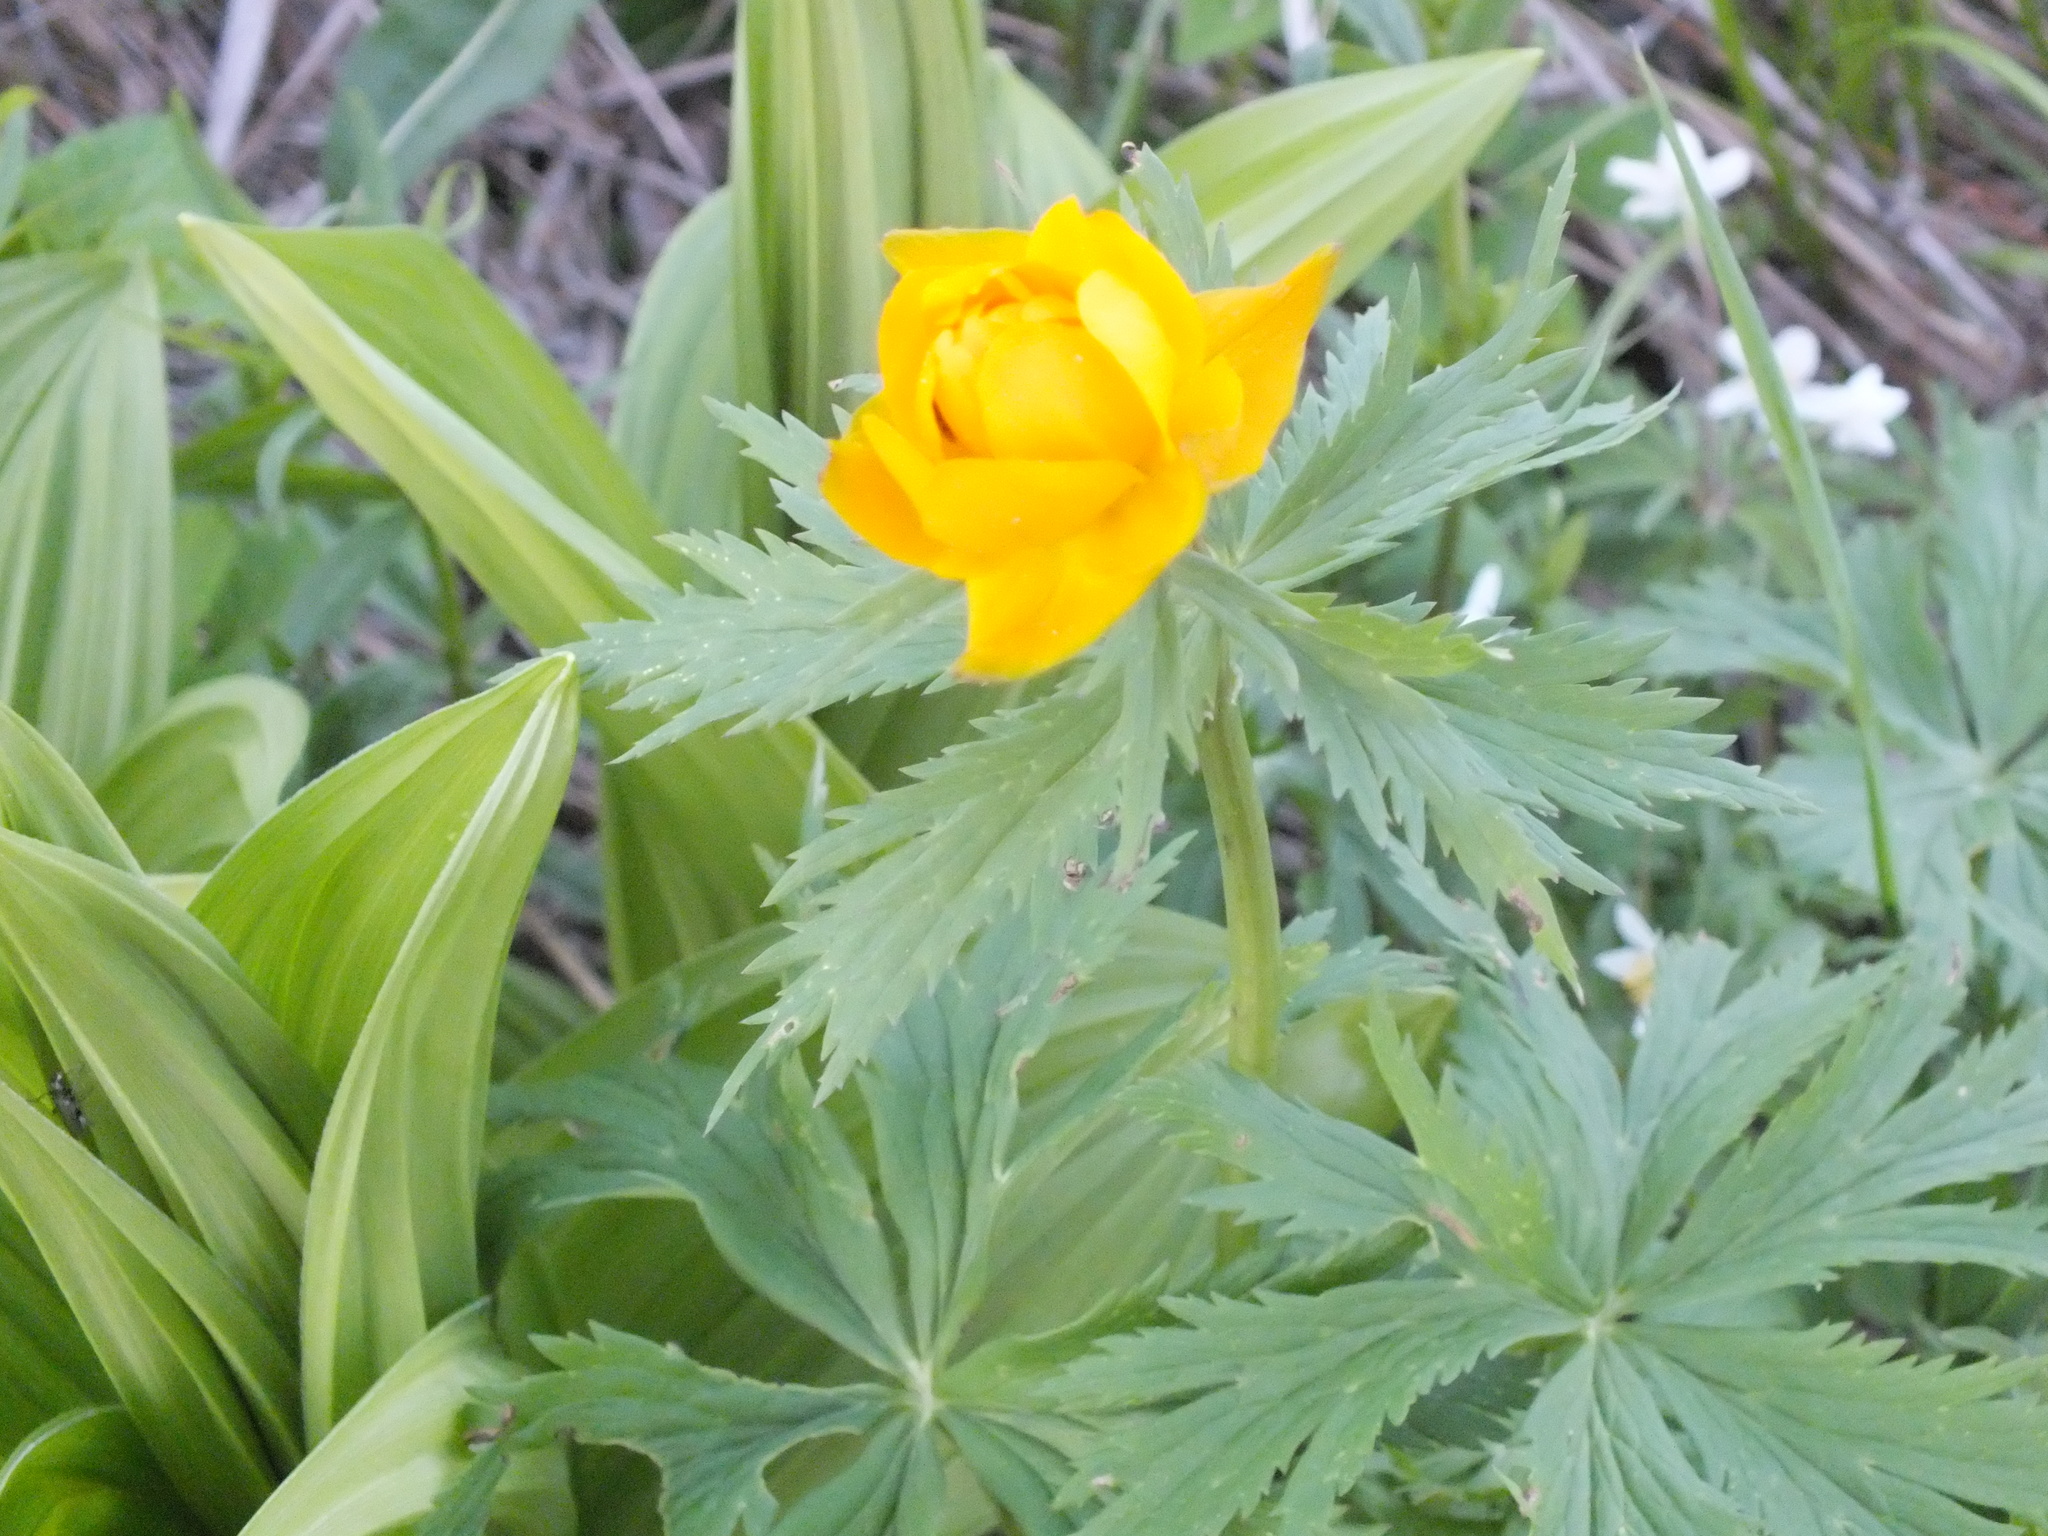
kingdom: Plantae
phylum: Tracheophyta
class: Magnoliopsida
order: Ranunculales
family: Ranunculaceae
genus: Trollius
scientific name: Trollius asiaticus
